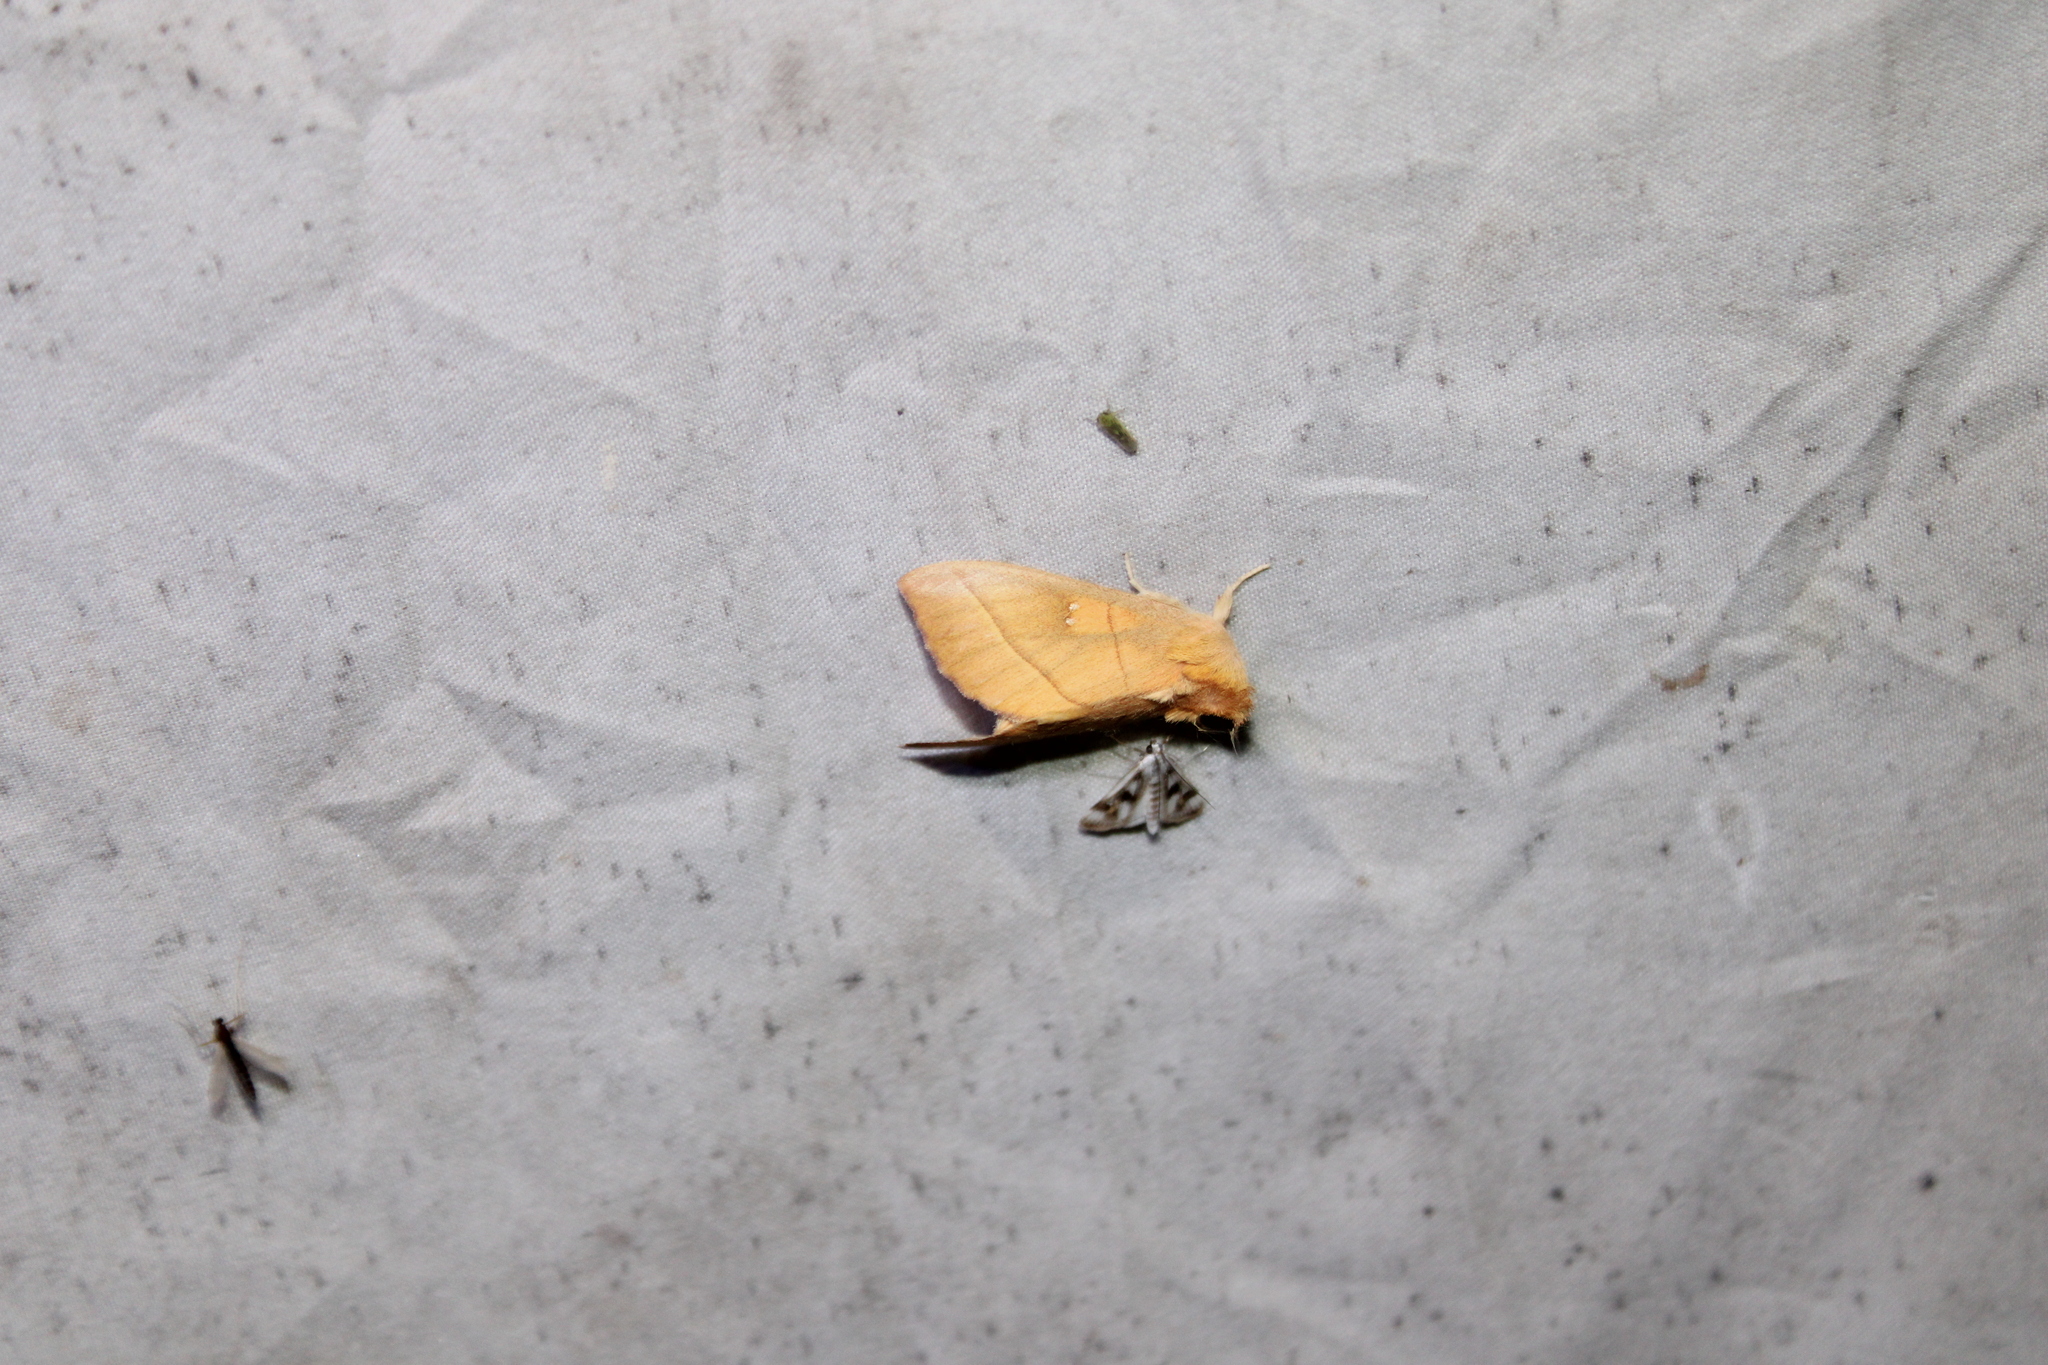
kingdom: Animalia
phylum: Arthropoda
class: Insecta
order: Lepidoptera
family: Notodontidae
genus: Nadata
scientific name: Nadata gibbosa
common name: White-dotted prominent
